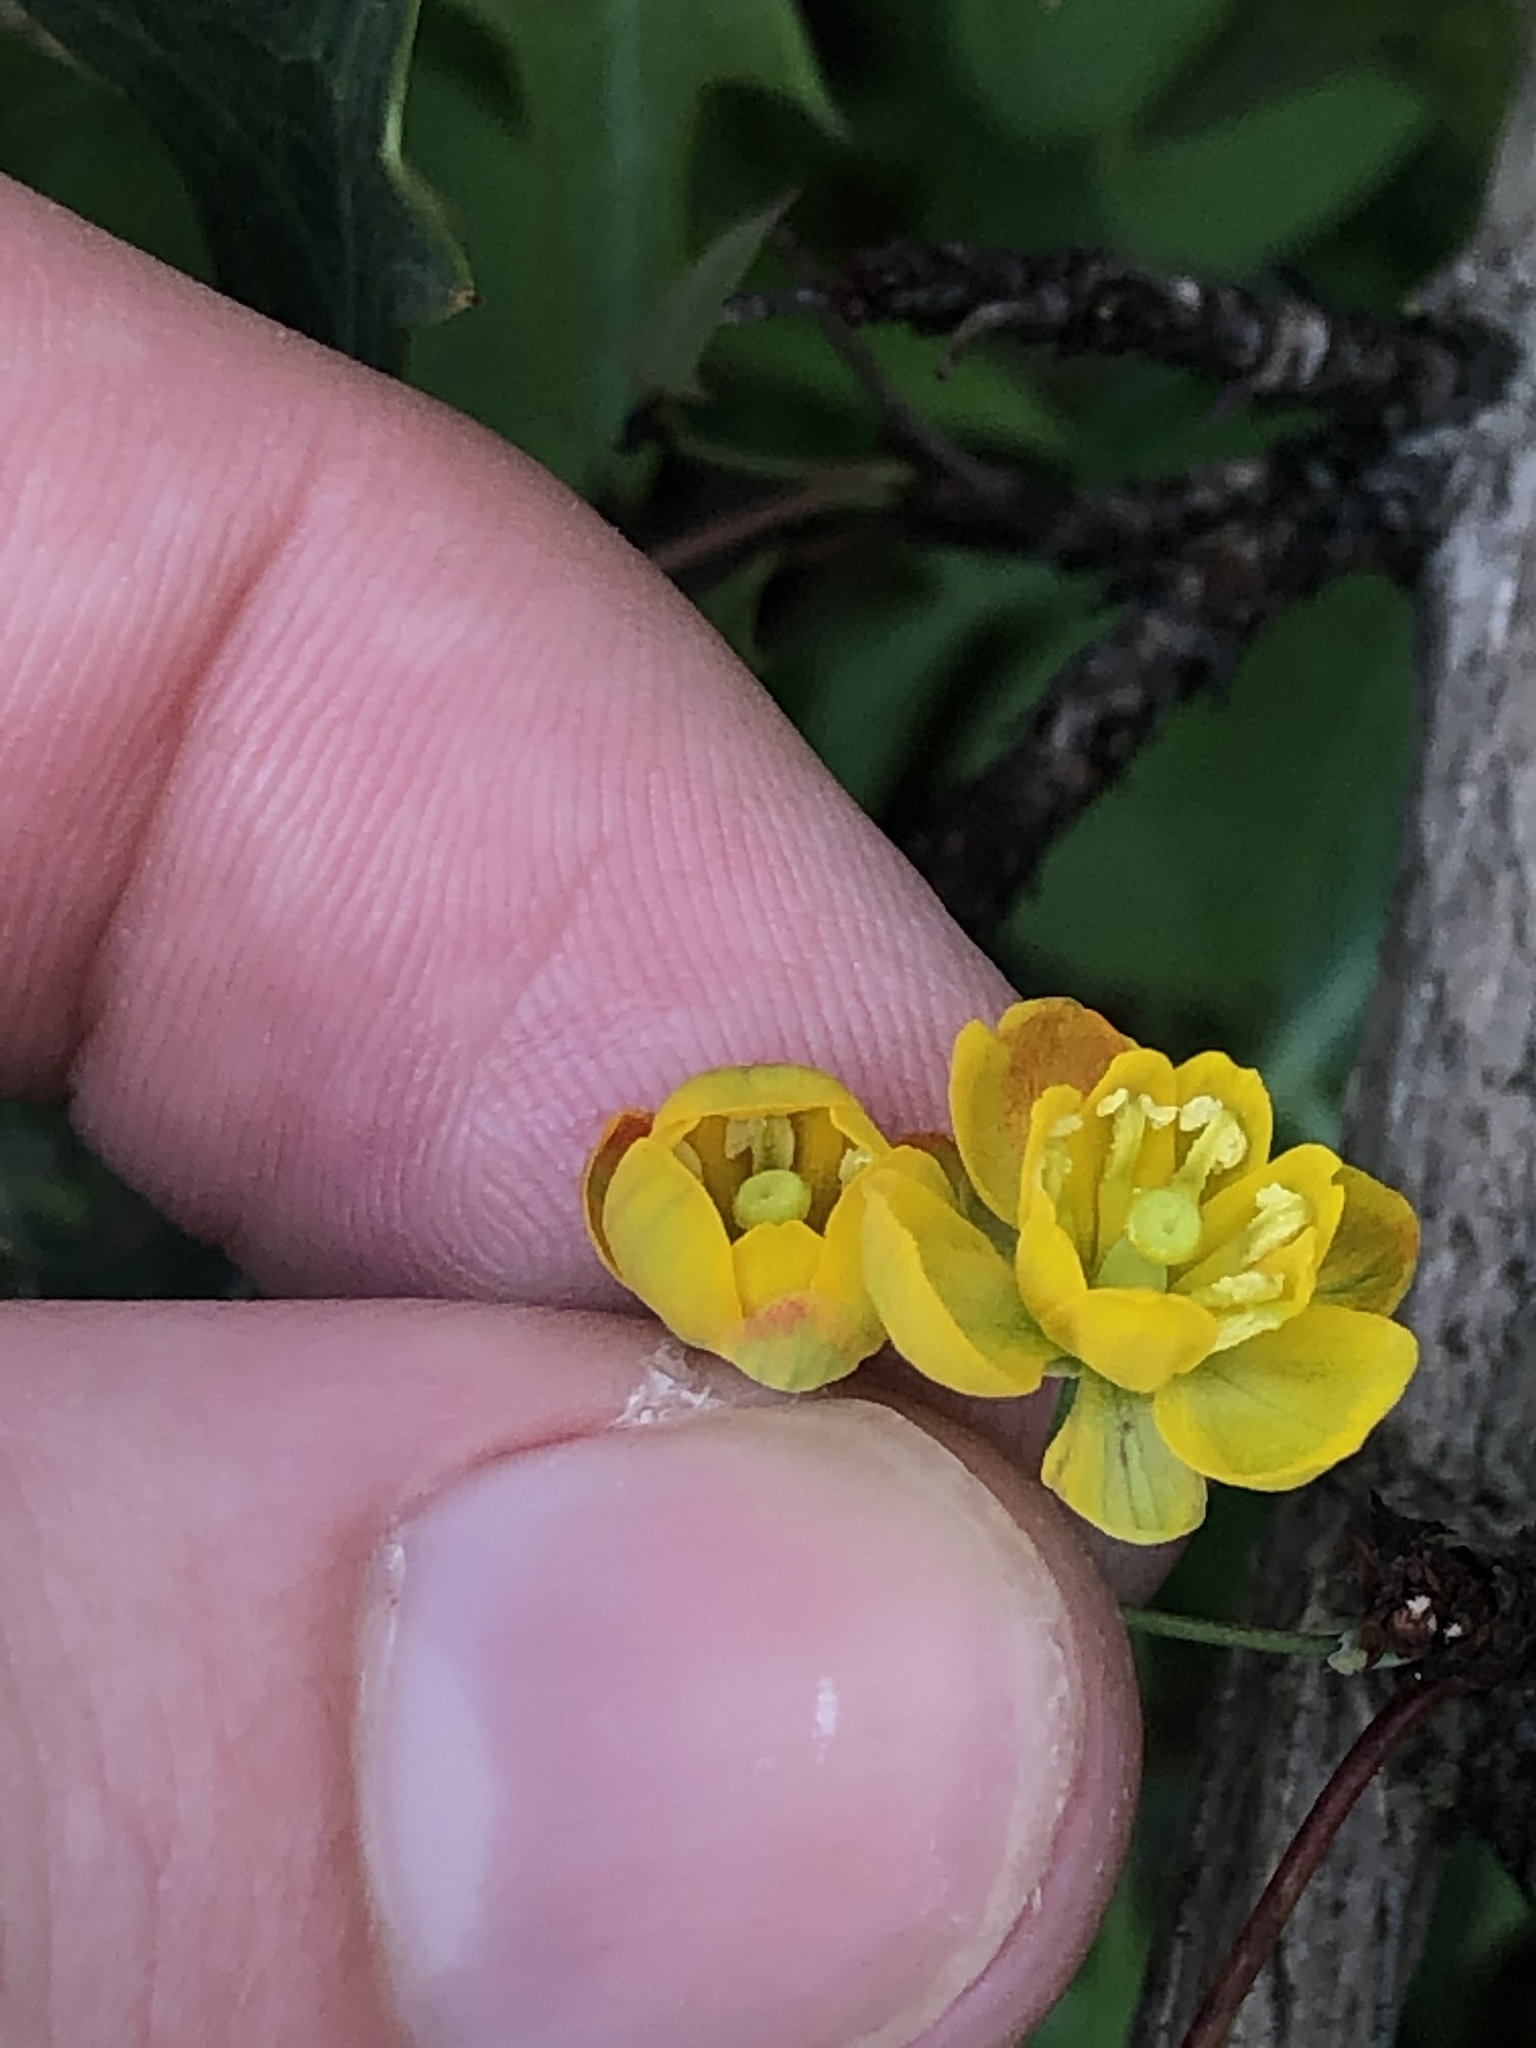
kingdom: Plantae
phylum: Tracheophyta
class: Magnoliopsida
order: Ranunculales
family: Berberidaceae
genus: Alloberberis
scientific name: Alloberberis trifoliolata
